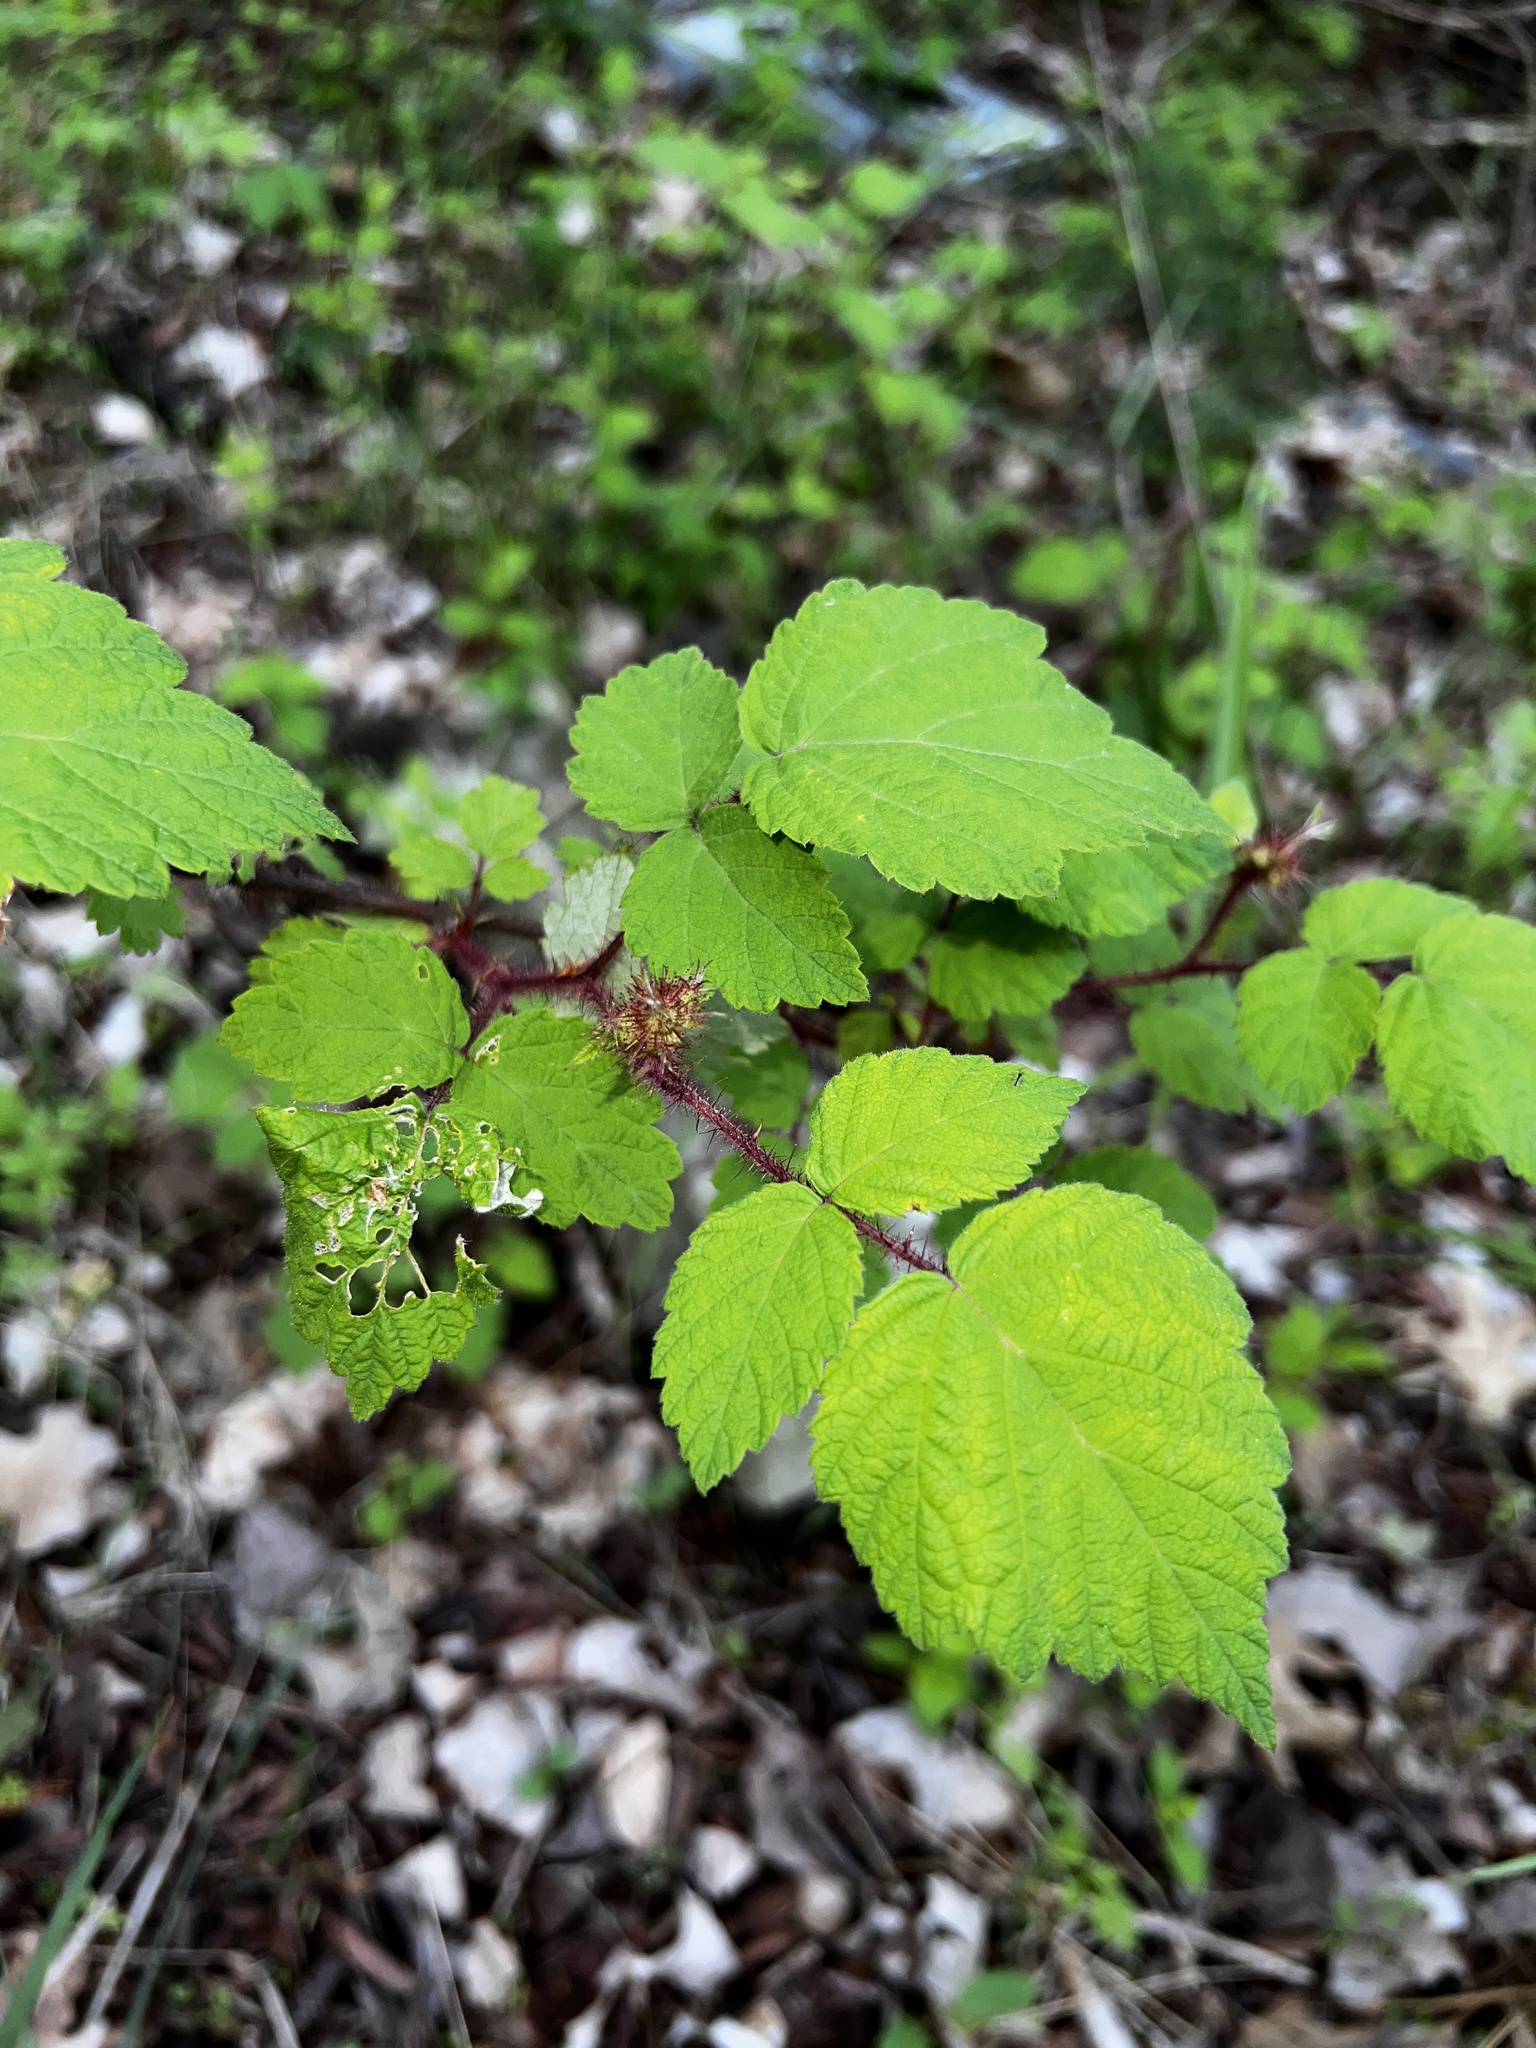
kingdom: Plantae
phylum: Tracheophyta
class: Magnoliopsida
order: Rosales
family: Rosaceae
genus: Rubus
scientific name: Rubus phoenicolasius
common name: Japanese wineberry
